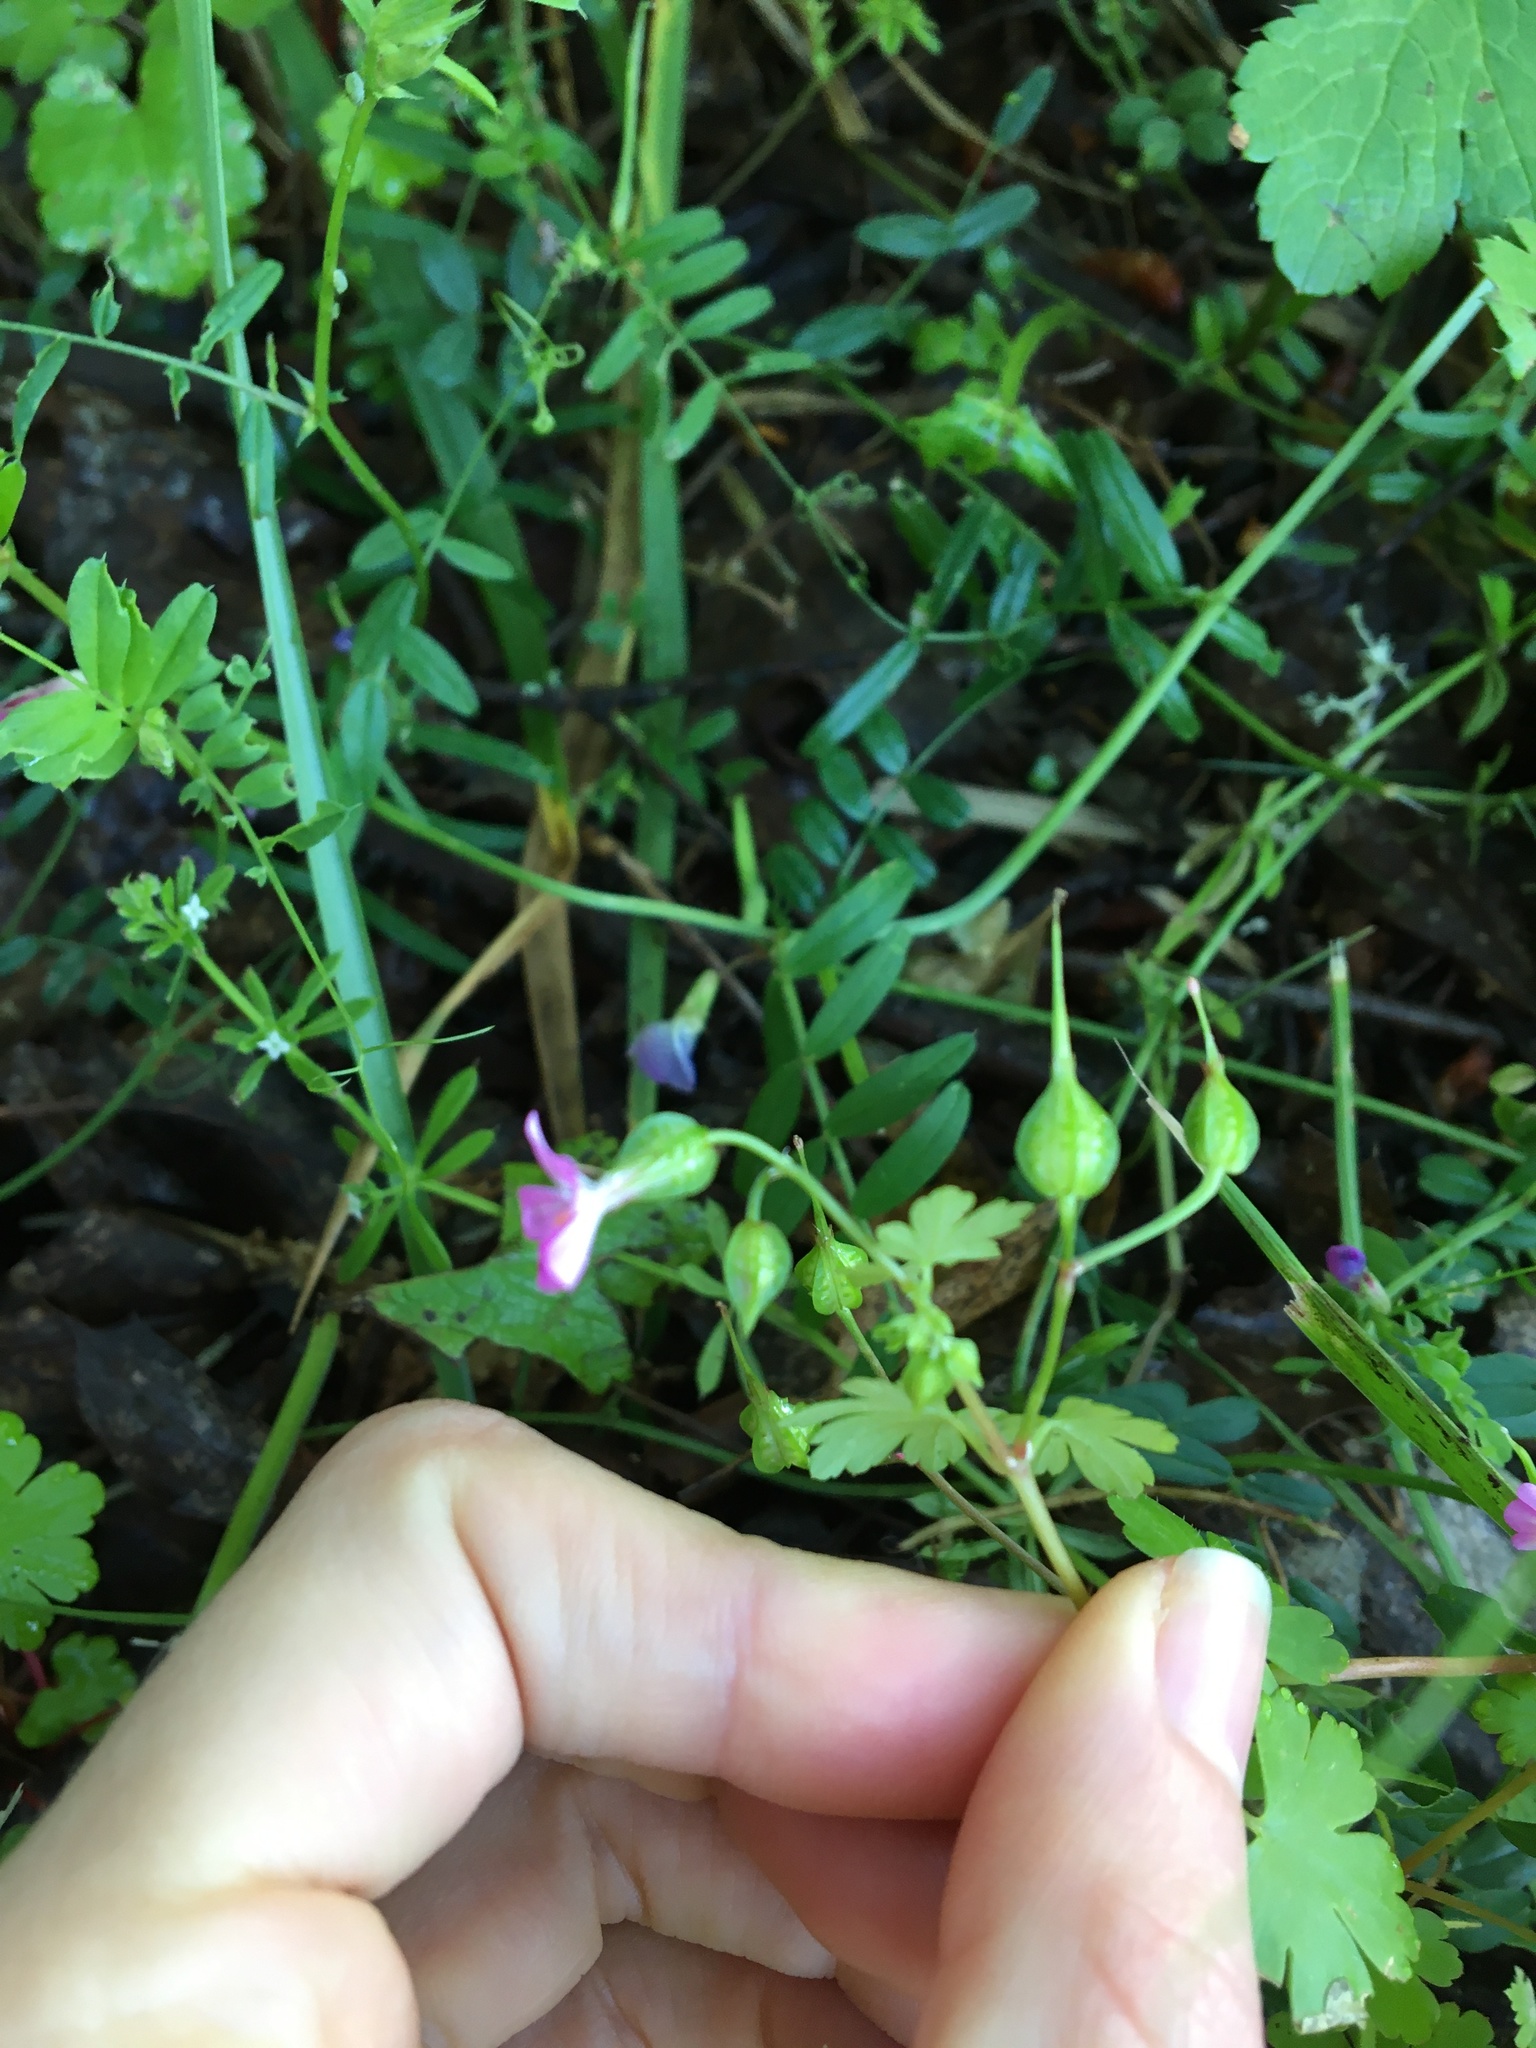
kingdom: Plantae
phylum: Tracheophyta
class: Magnoliopsida
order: Geraniales
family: Geraniaceae
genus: Geranium
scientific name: Geranium lucidum
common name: Shining crane's-bill
